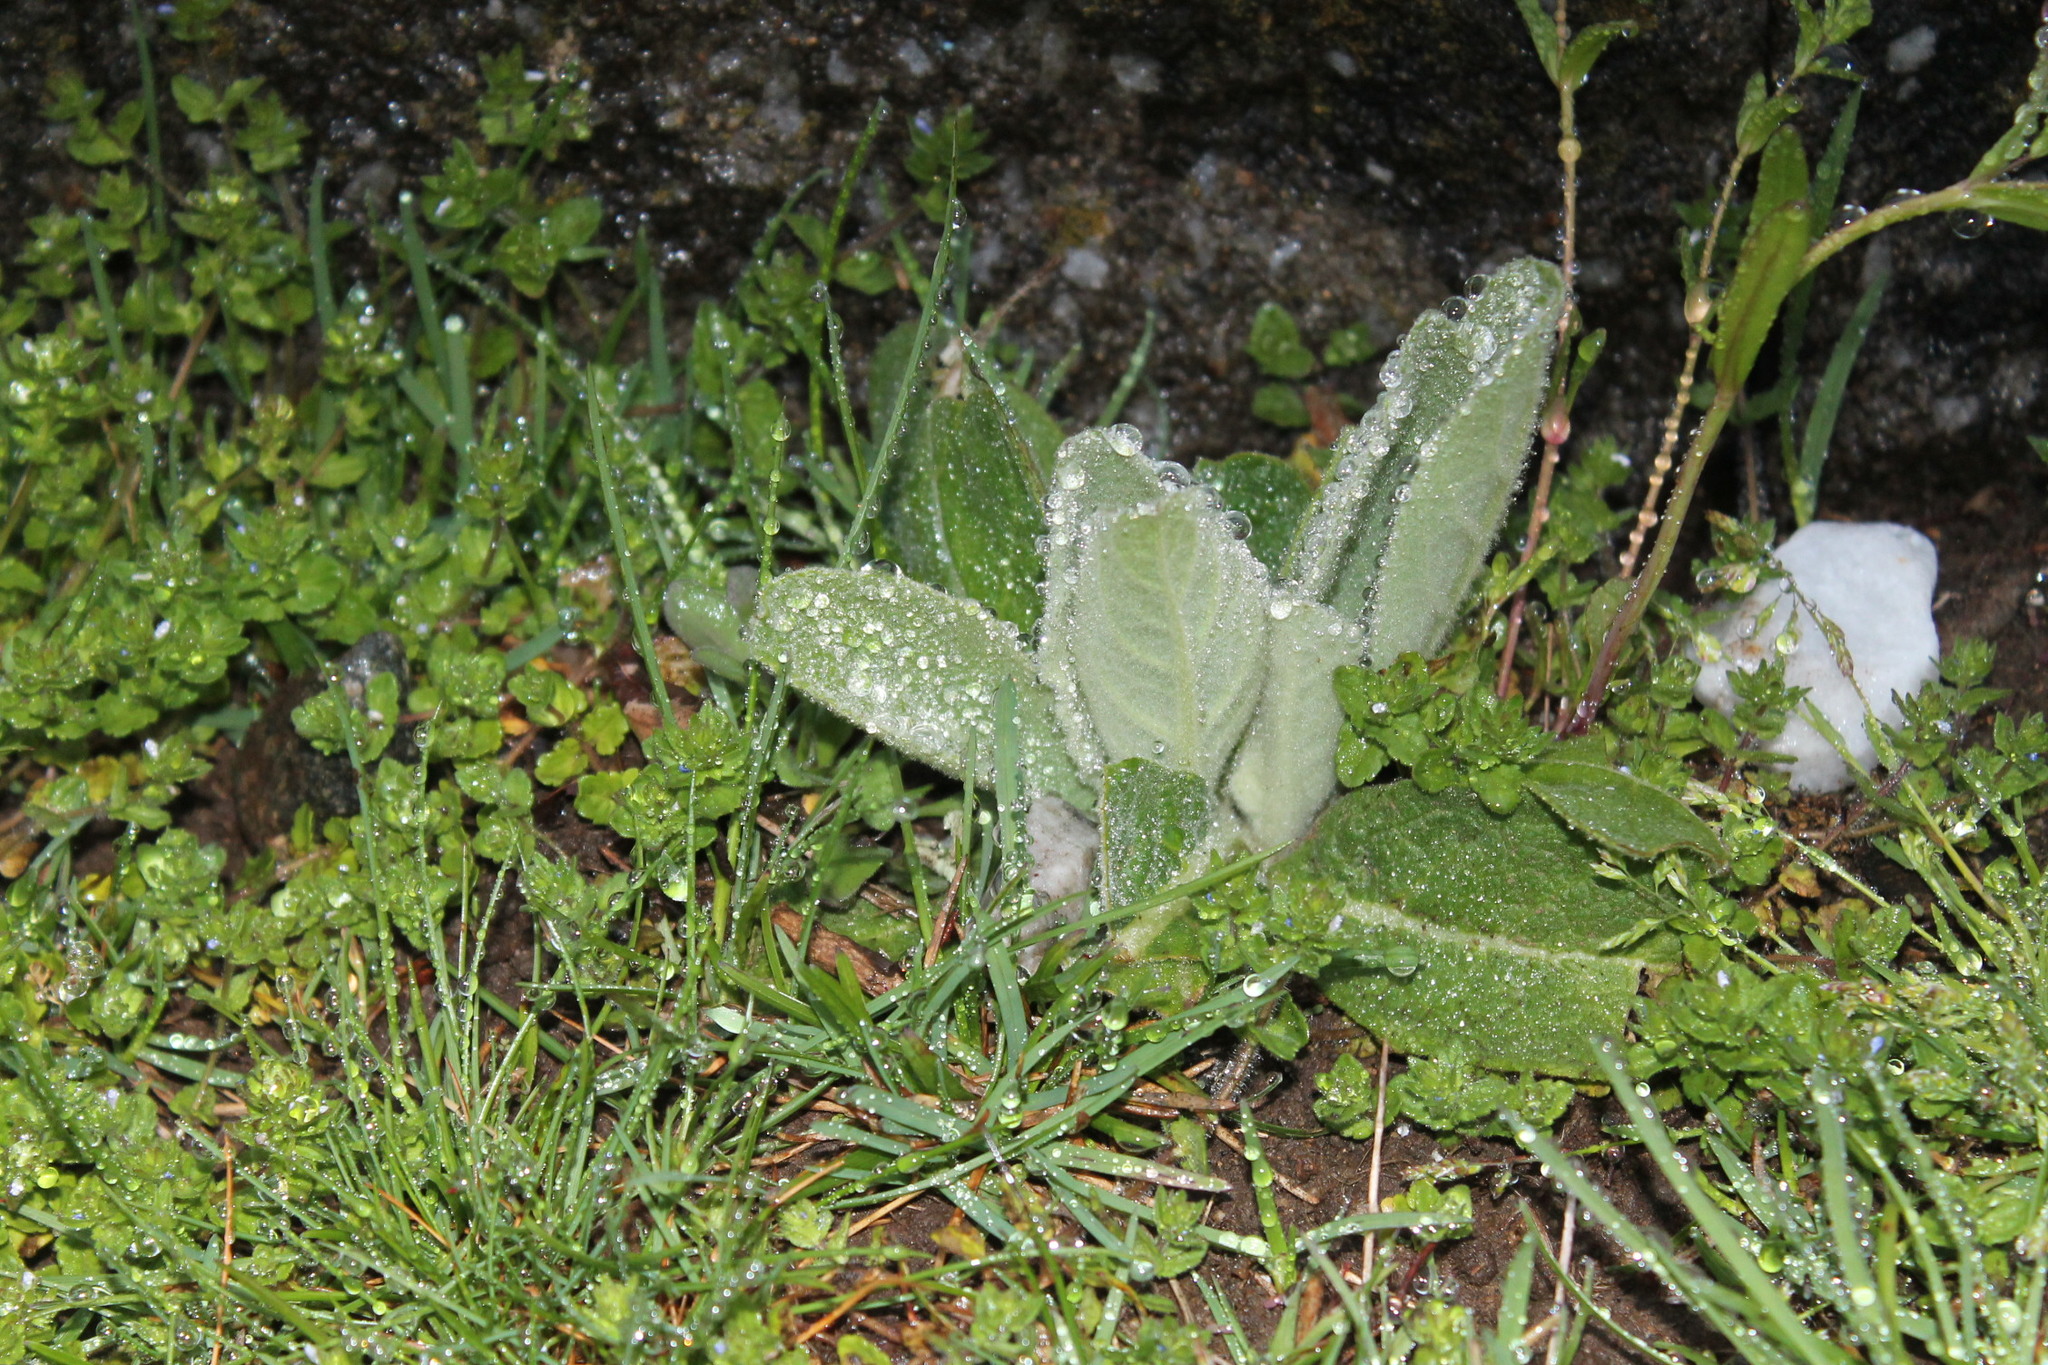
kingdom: Plantae
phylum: Tracheophyta
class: Magnoliopsida
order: Lamiales
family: Scrophulariaceae
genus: Verbascum
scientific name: Verbascum thapsus
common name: Common mullein
